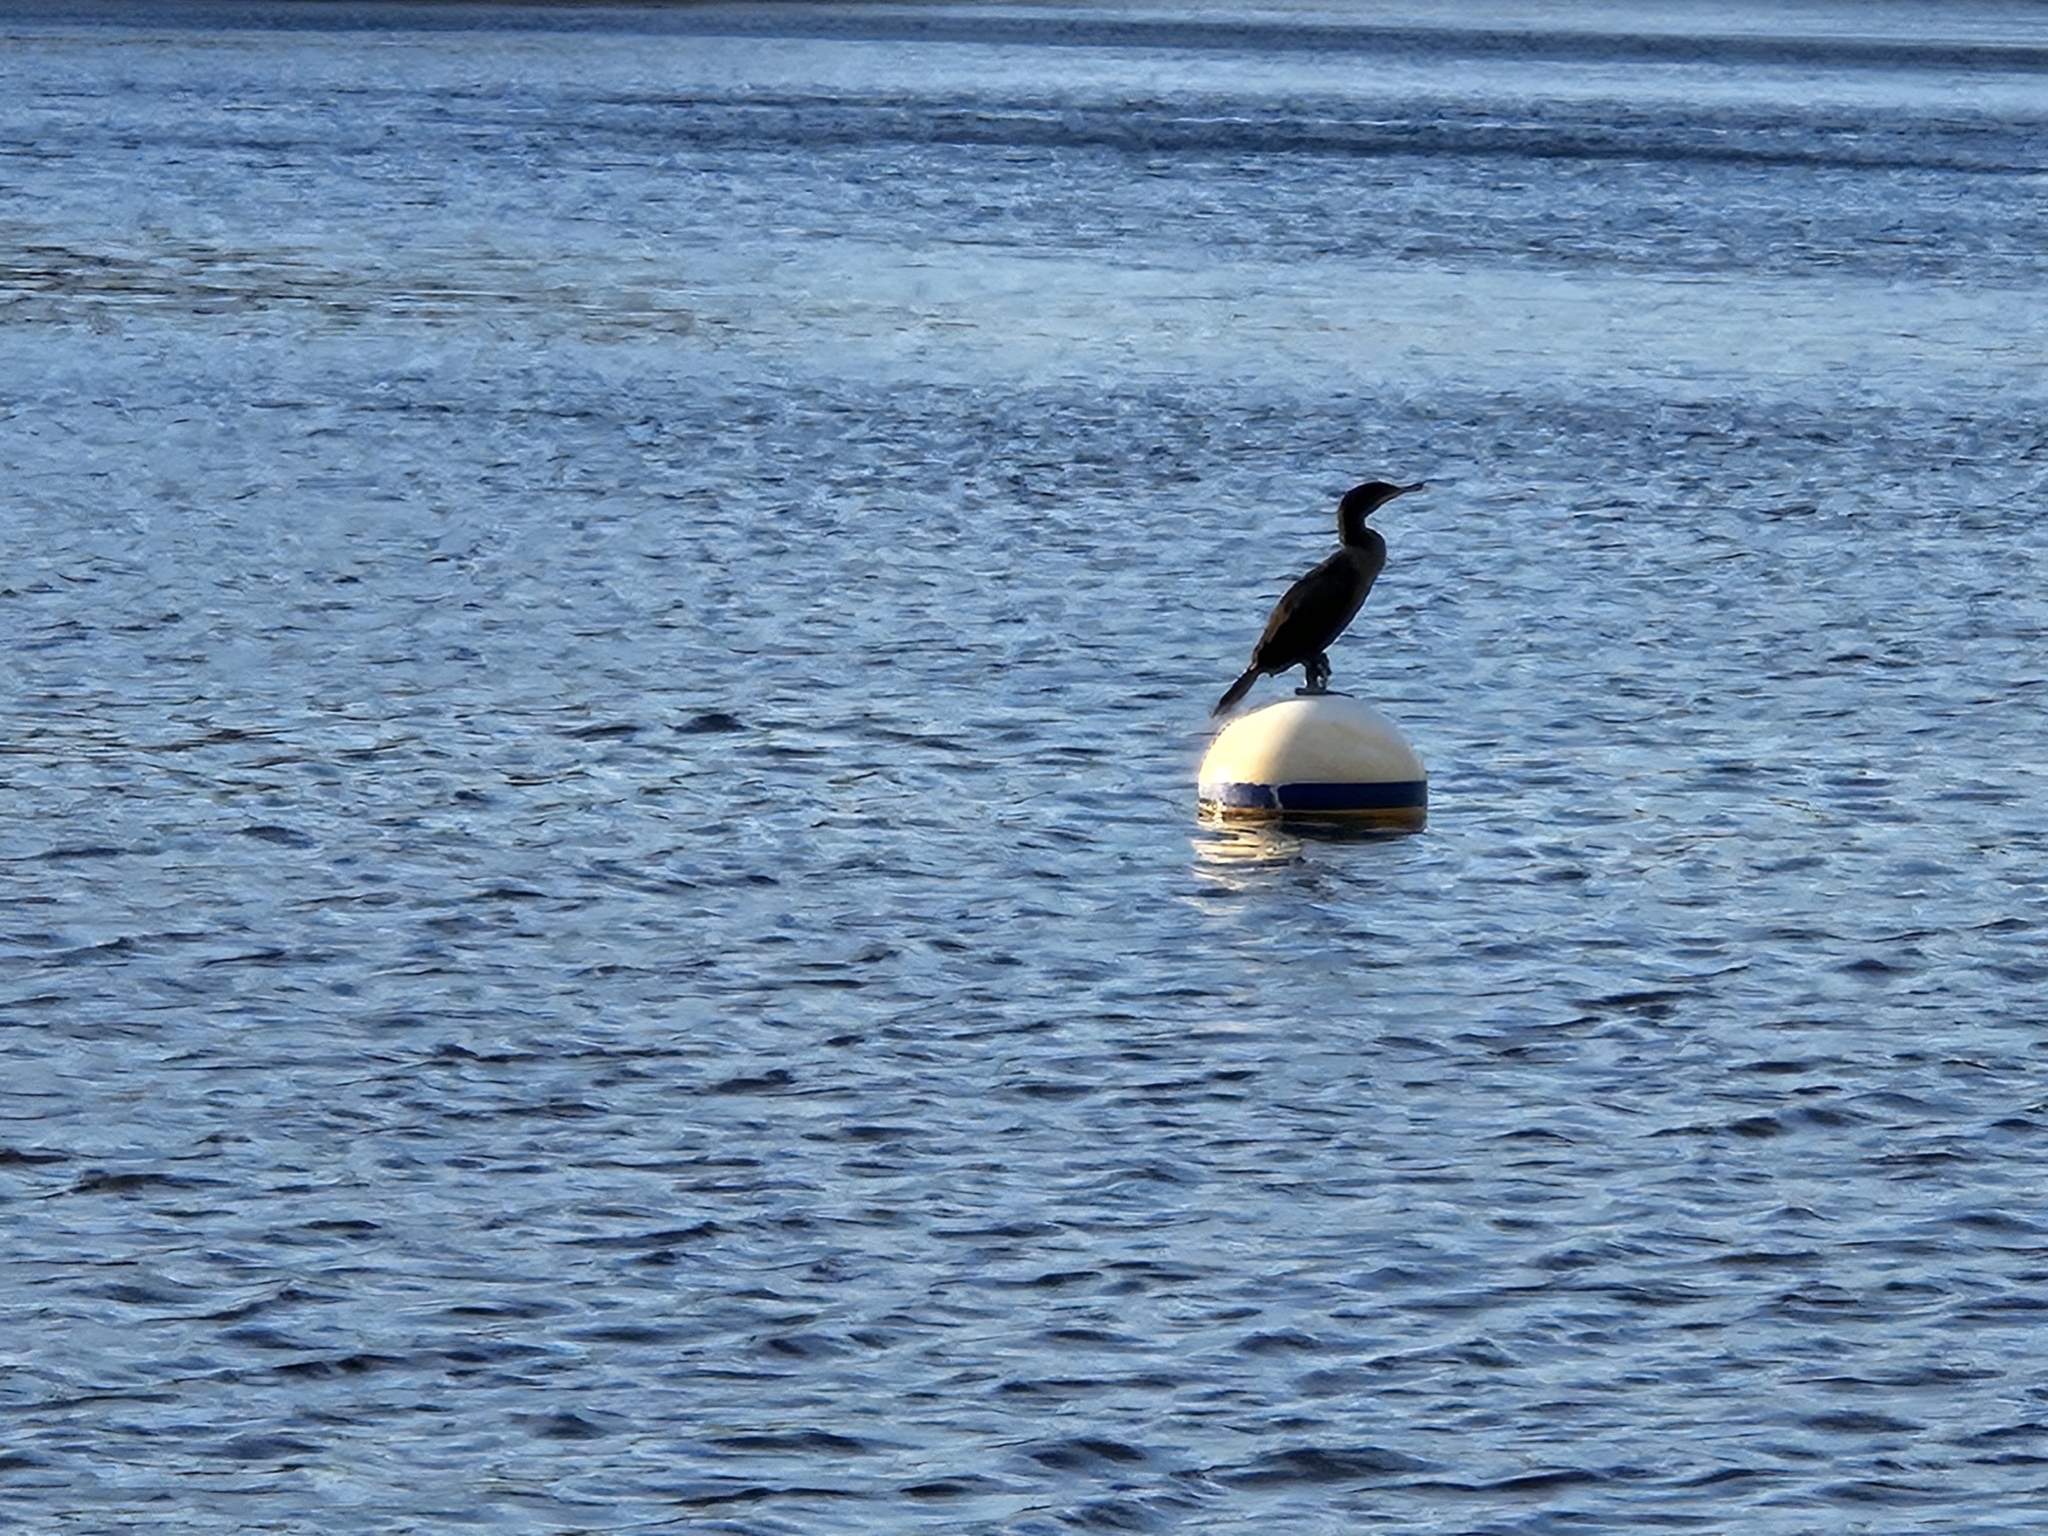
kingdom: Animalia
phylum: Chordata
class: Aves
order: Suliformes
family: Phalacrocoracidae
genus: Phalacrocorax
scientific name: Phalacrocorax auritus
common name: Double-crested cormorant
